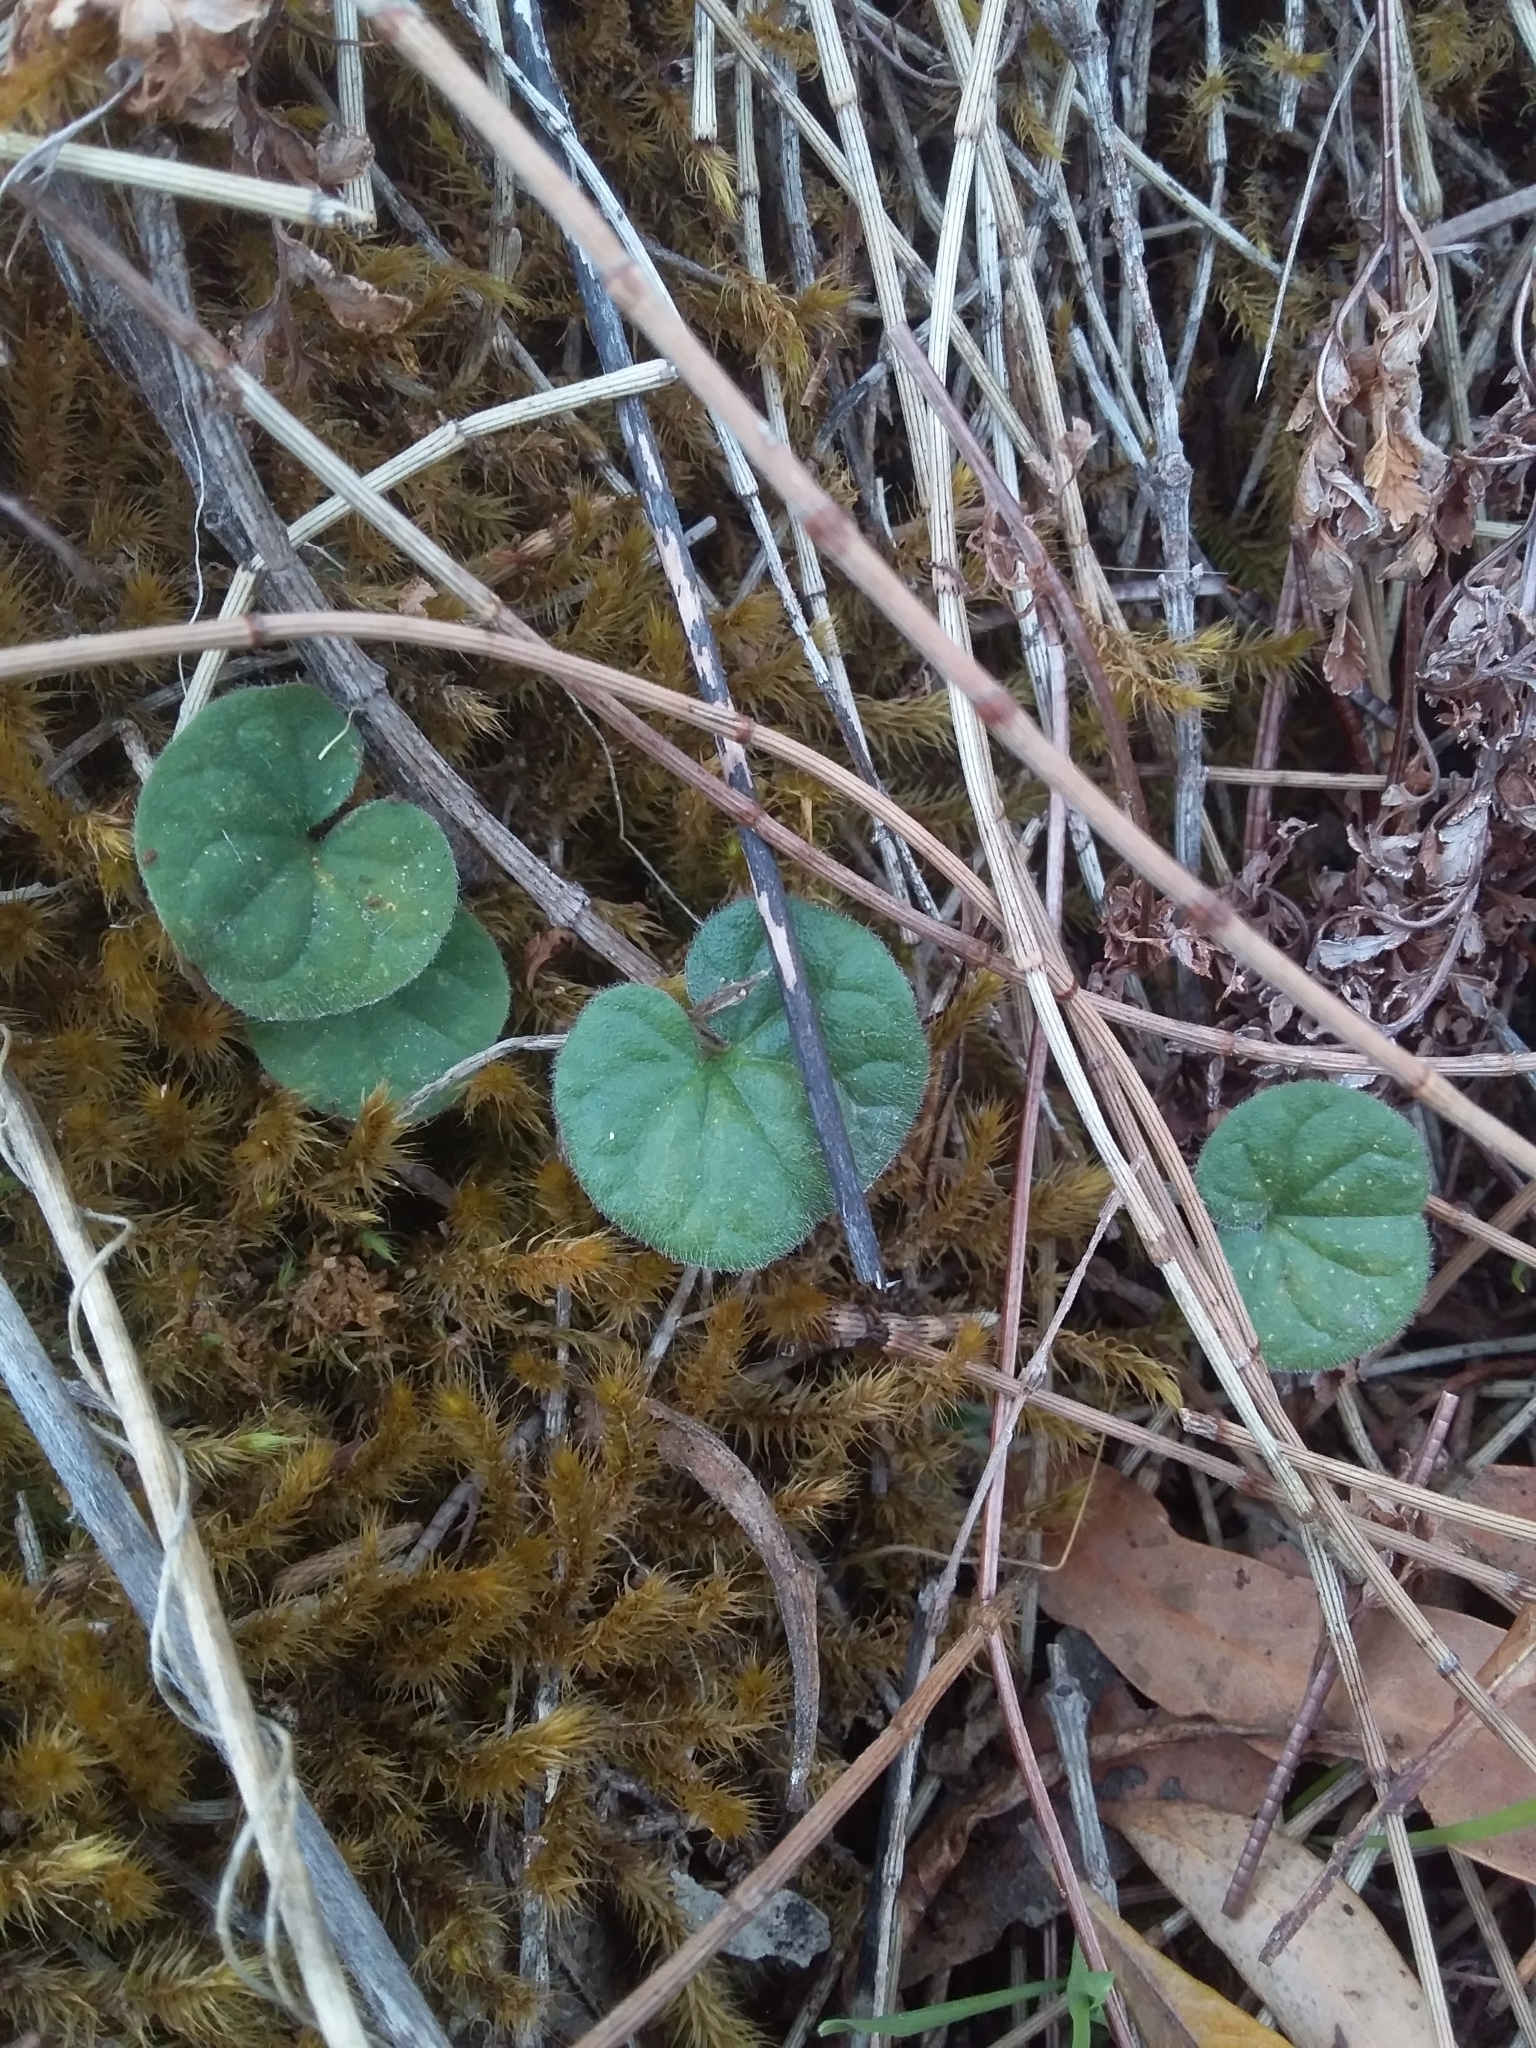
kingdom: Plantae
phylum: Tracheophyta
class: Magnoliopsida
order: Solanales
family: Convolvulaceae
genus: Dichondra
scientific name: Dichondra repens
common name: Kidneyweed
